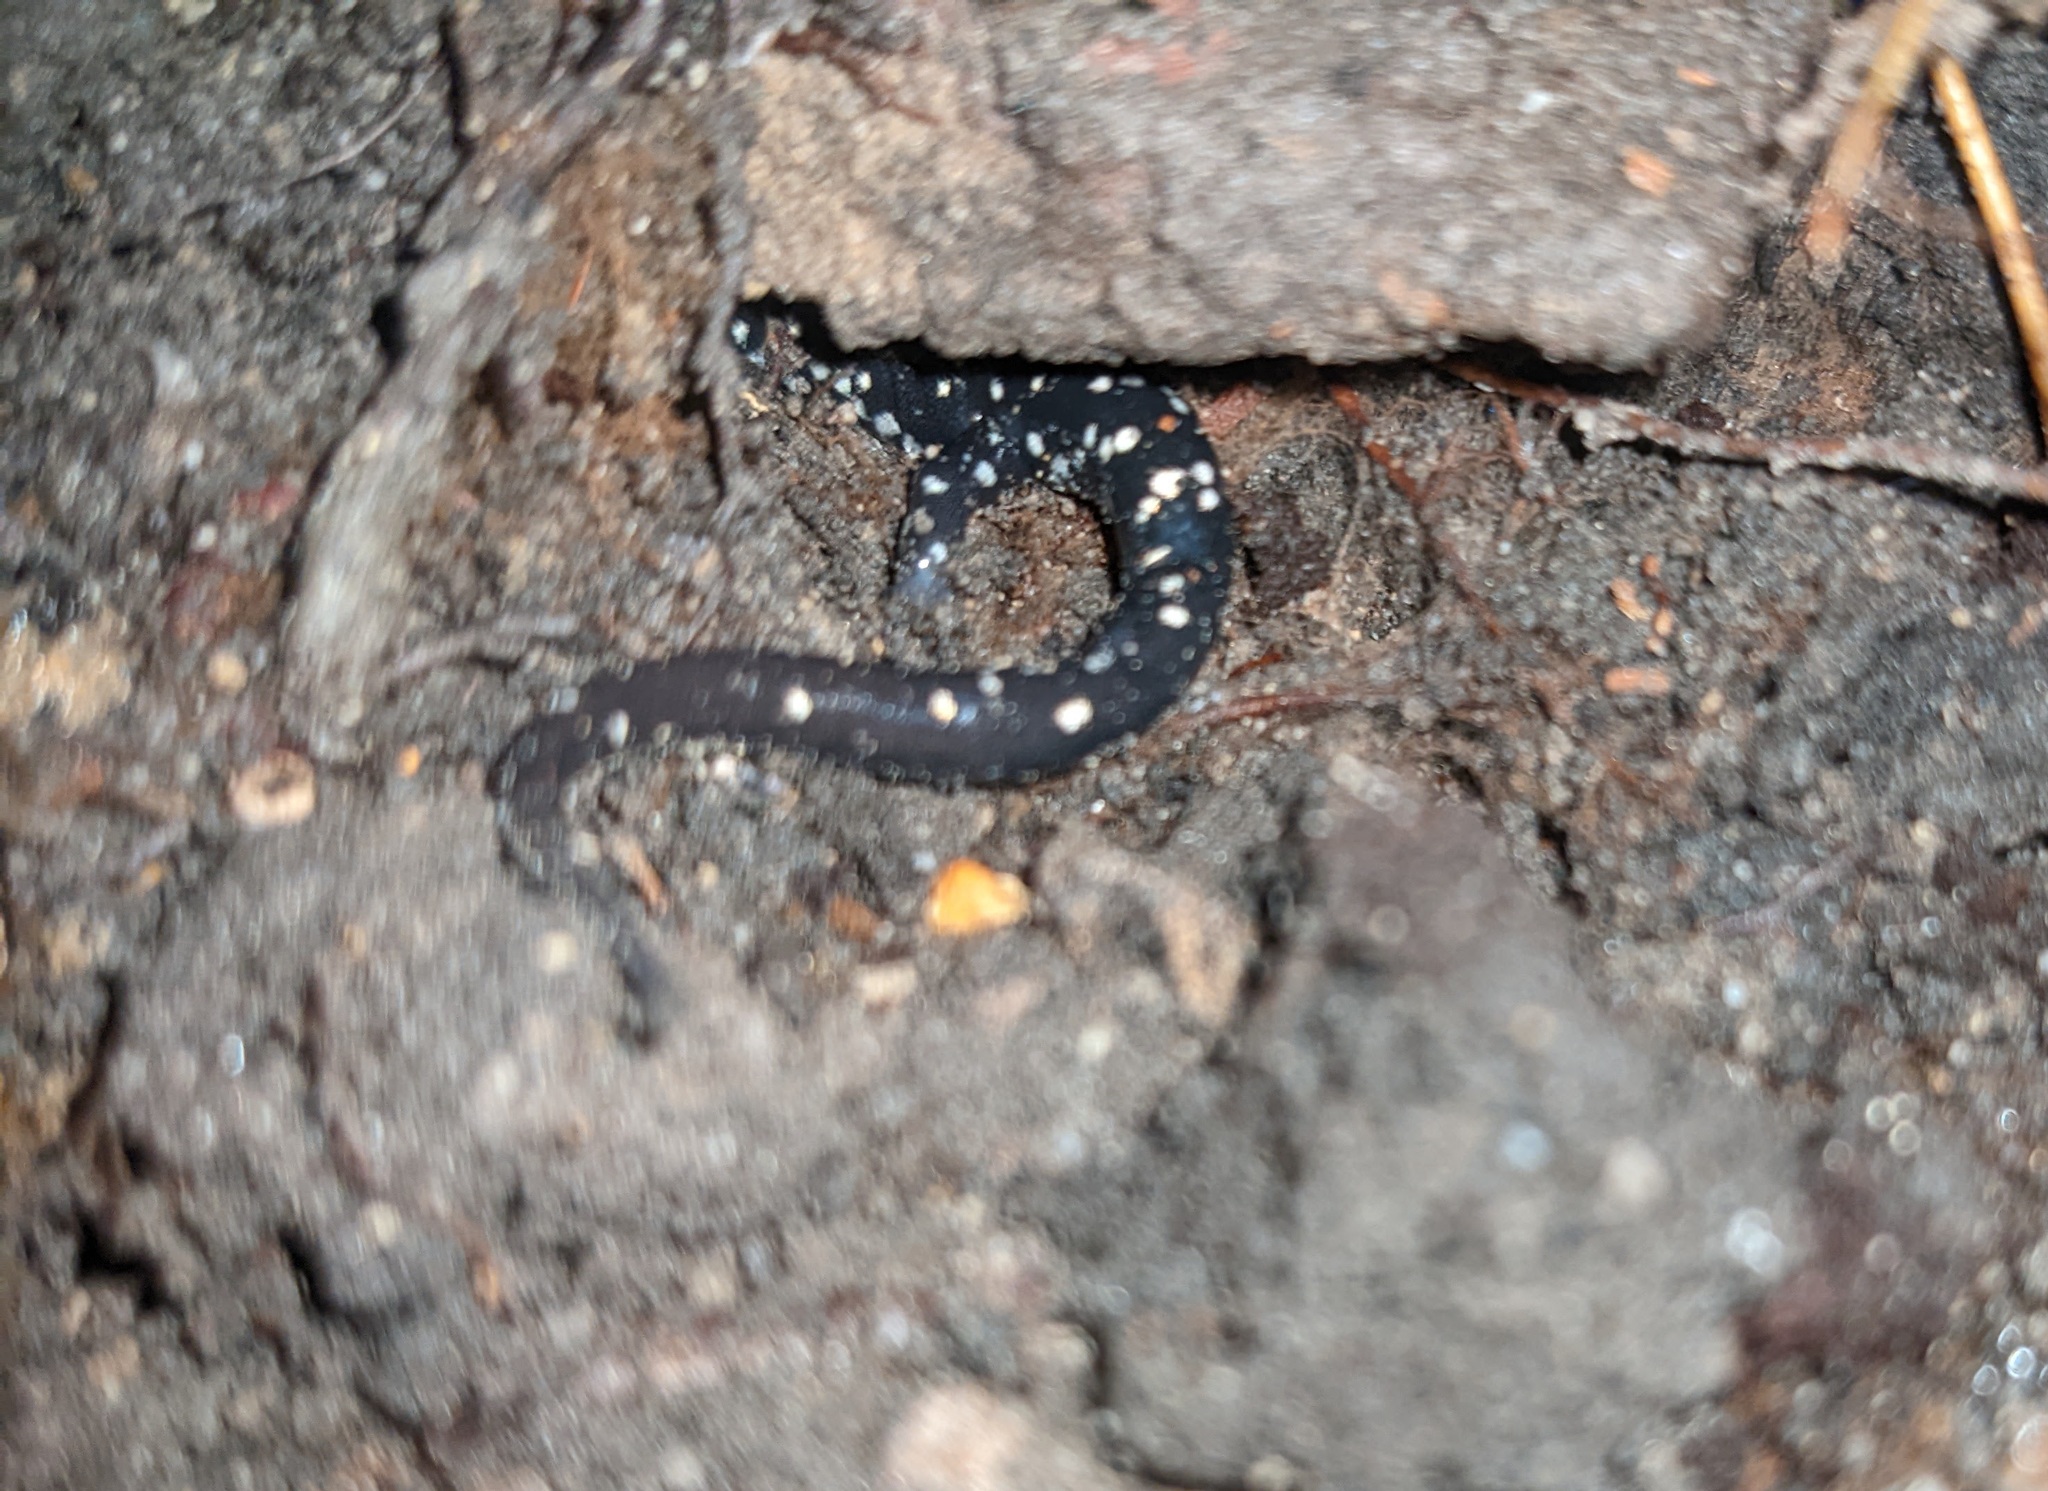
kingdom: Animalia
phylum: Chordata
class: Amphibia
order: Caudata
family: Plethodontidae
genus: Plethodon
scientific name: Plethodon glutinosus
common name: Northern slimy salamander
